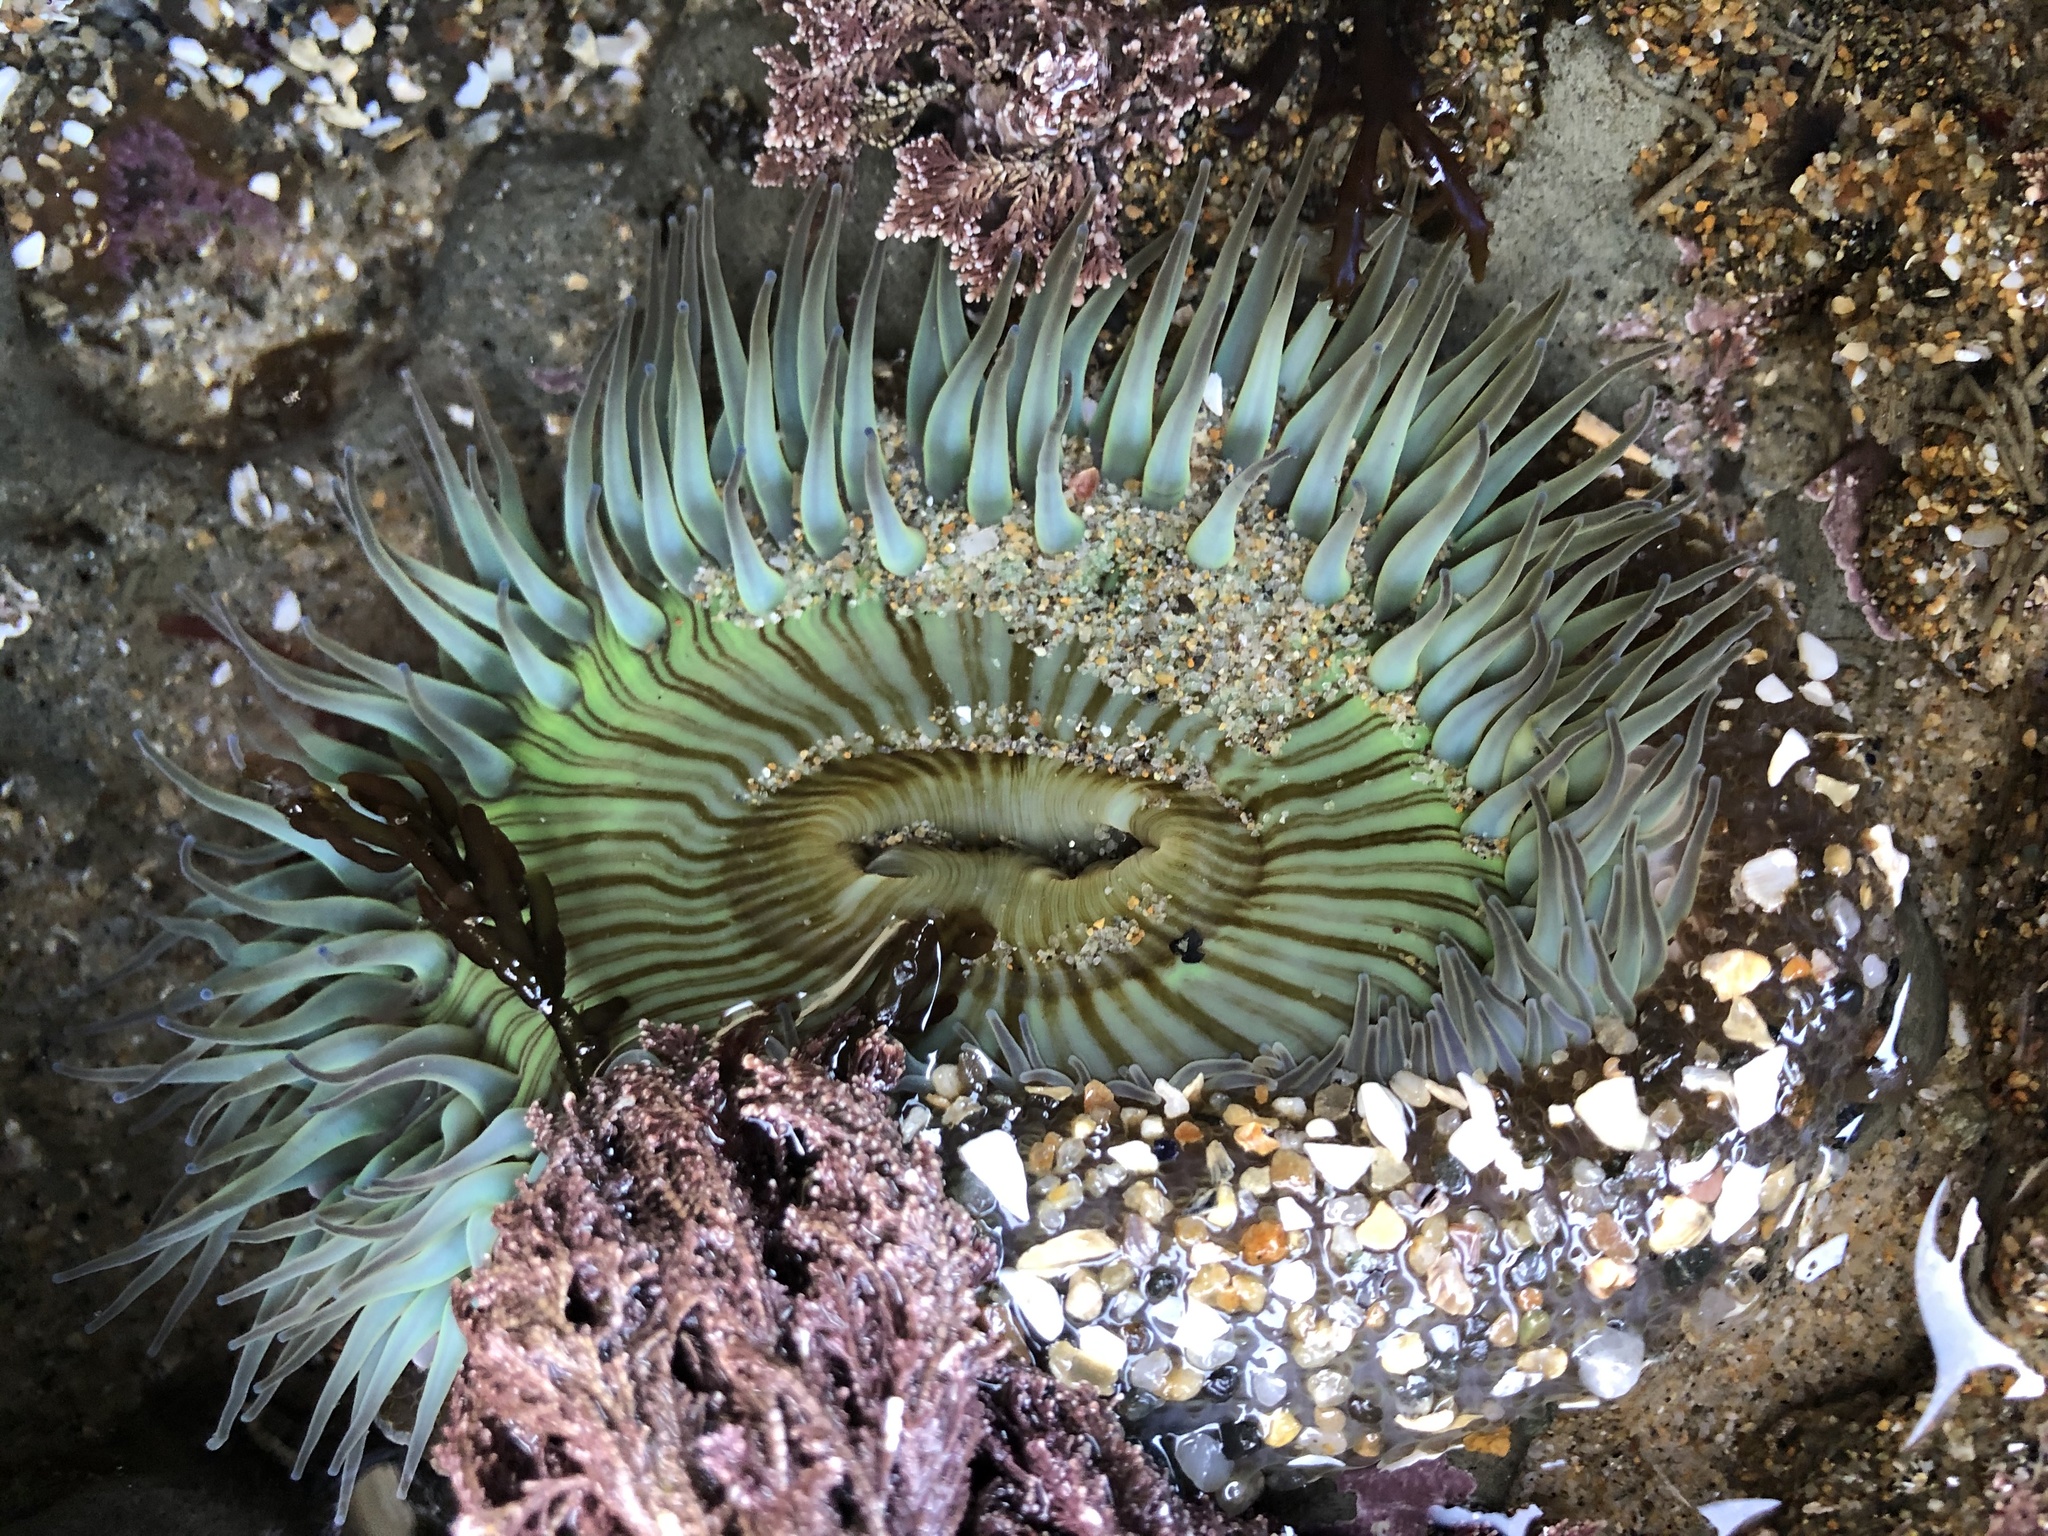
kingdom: Animalia
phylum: Cnidaria
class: Anthozoa
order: Actiniaria
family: Actiniidae
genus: Anthopleura
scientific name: Anthopleura sola
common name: Sun anemone
